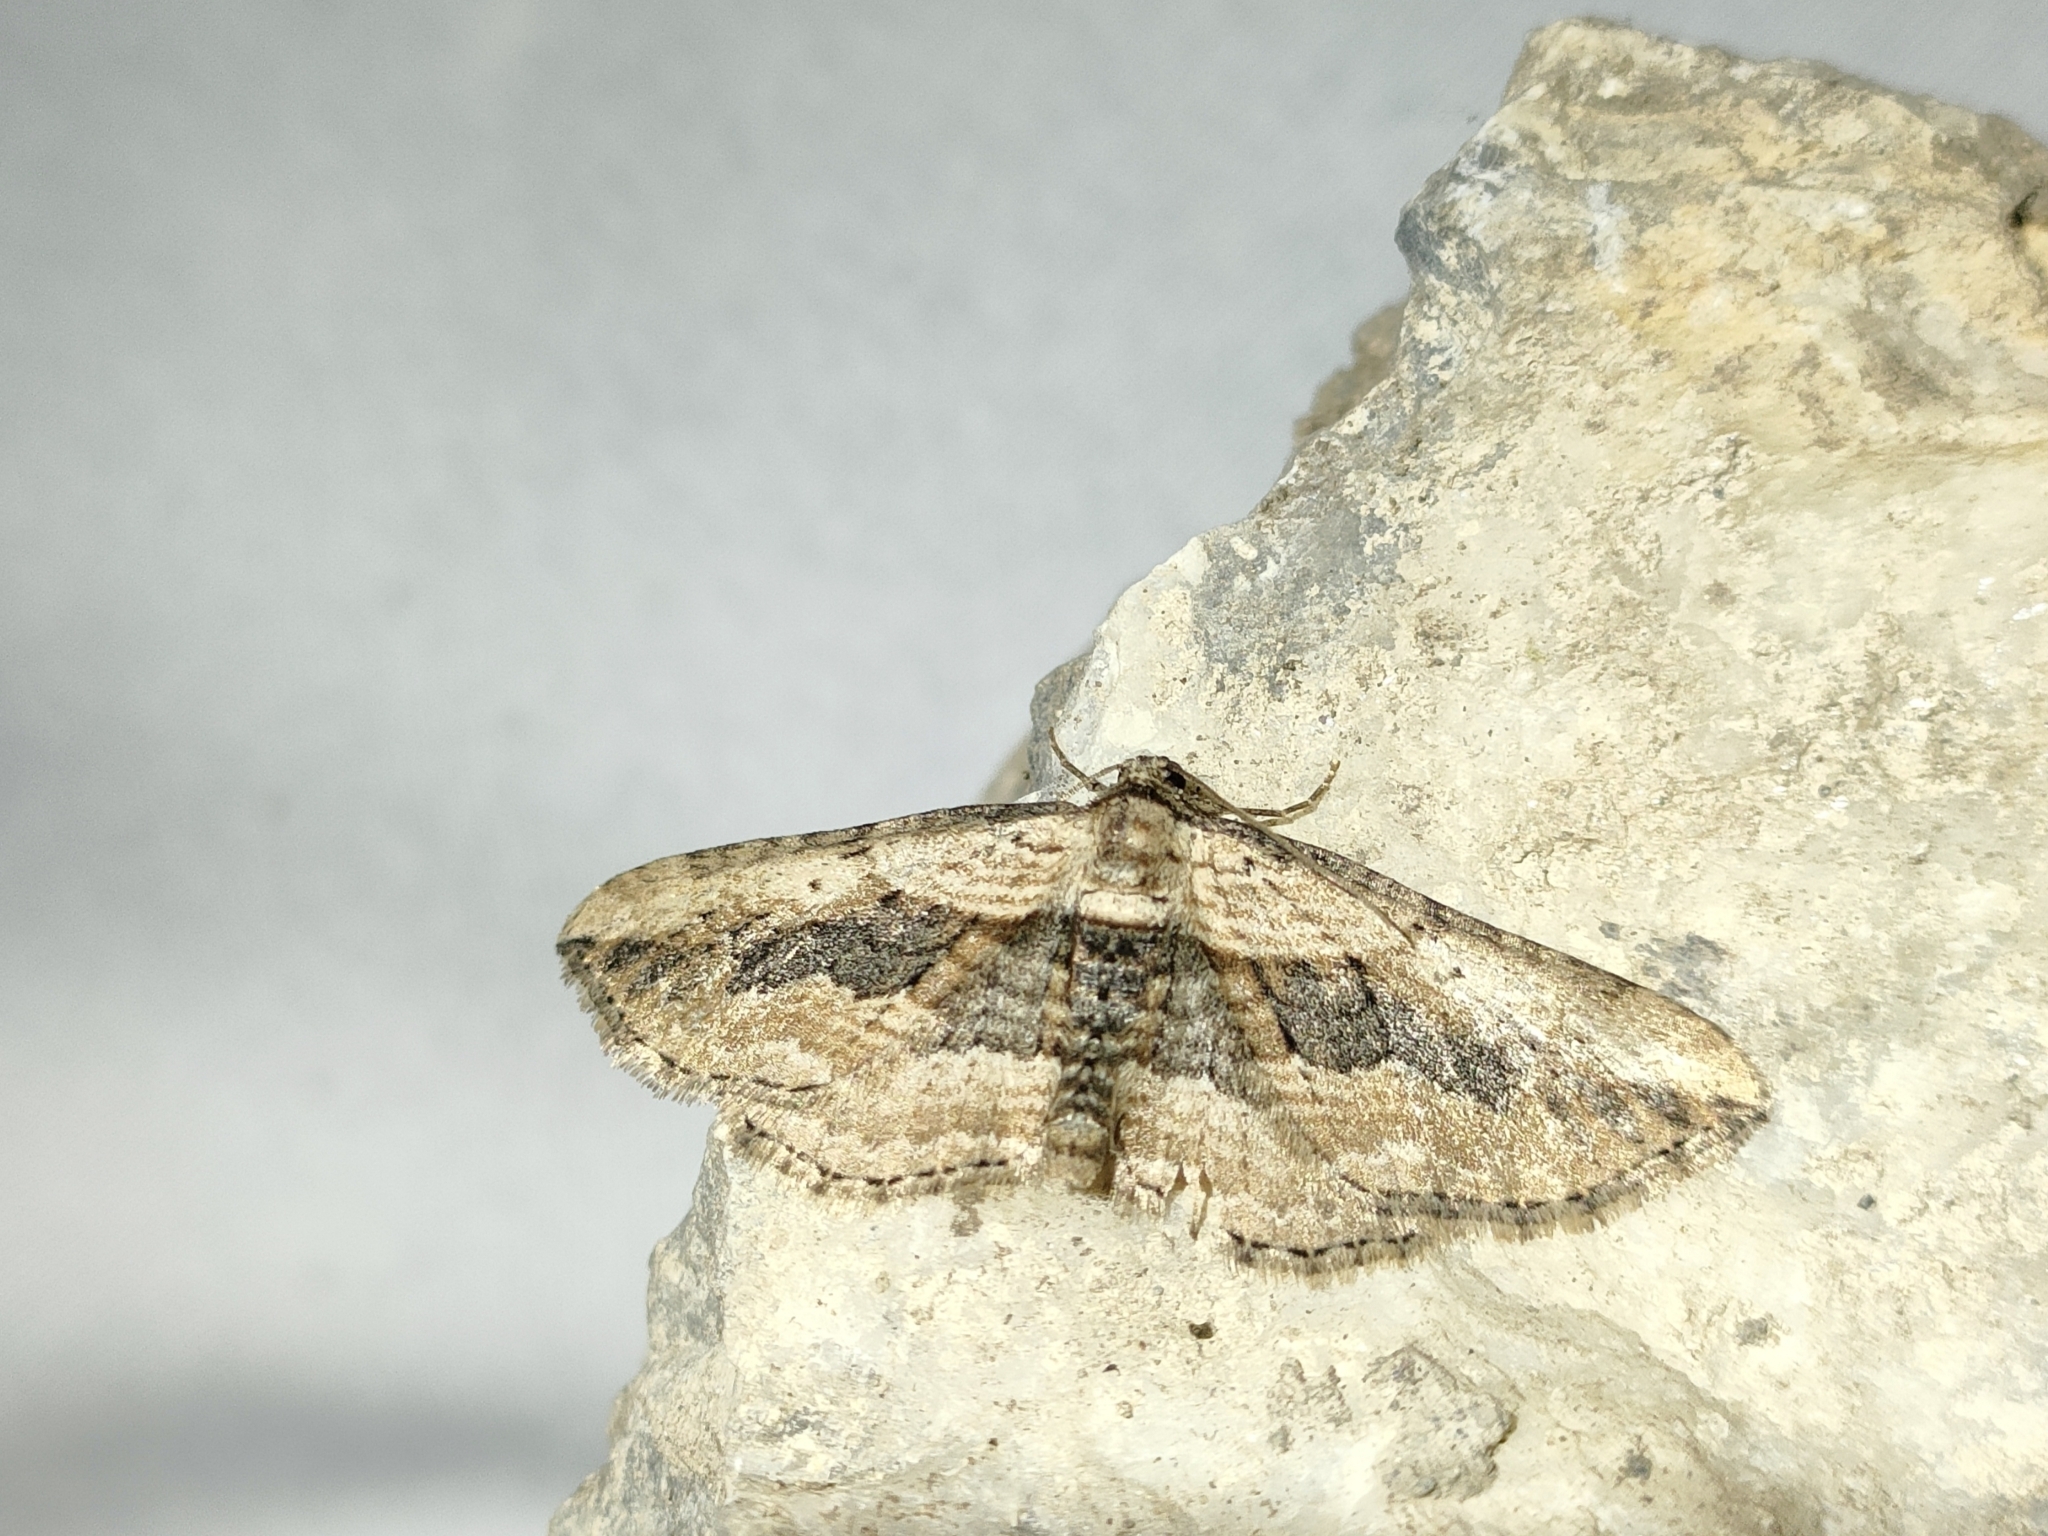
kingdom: Animalia
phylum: Arthropoda
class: Insecta
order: Lepidoptera
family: Geometridae
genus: Horisme
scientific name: Horisme vitalbata
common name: Small waved umber
